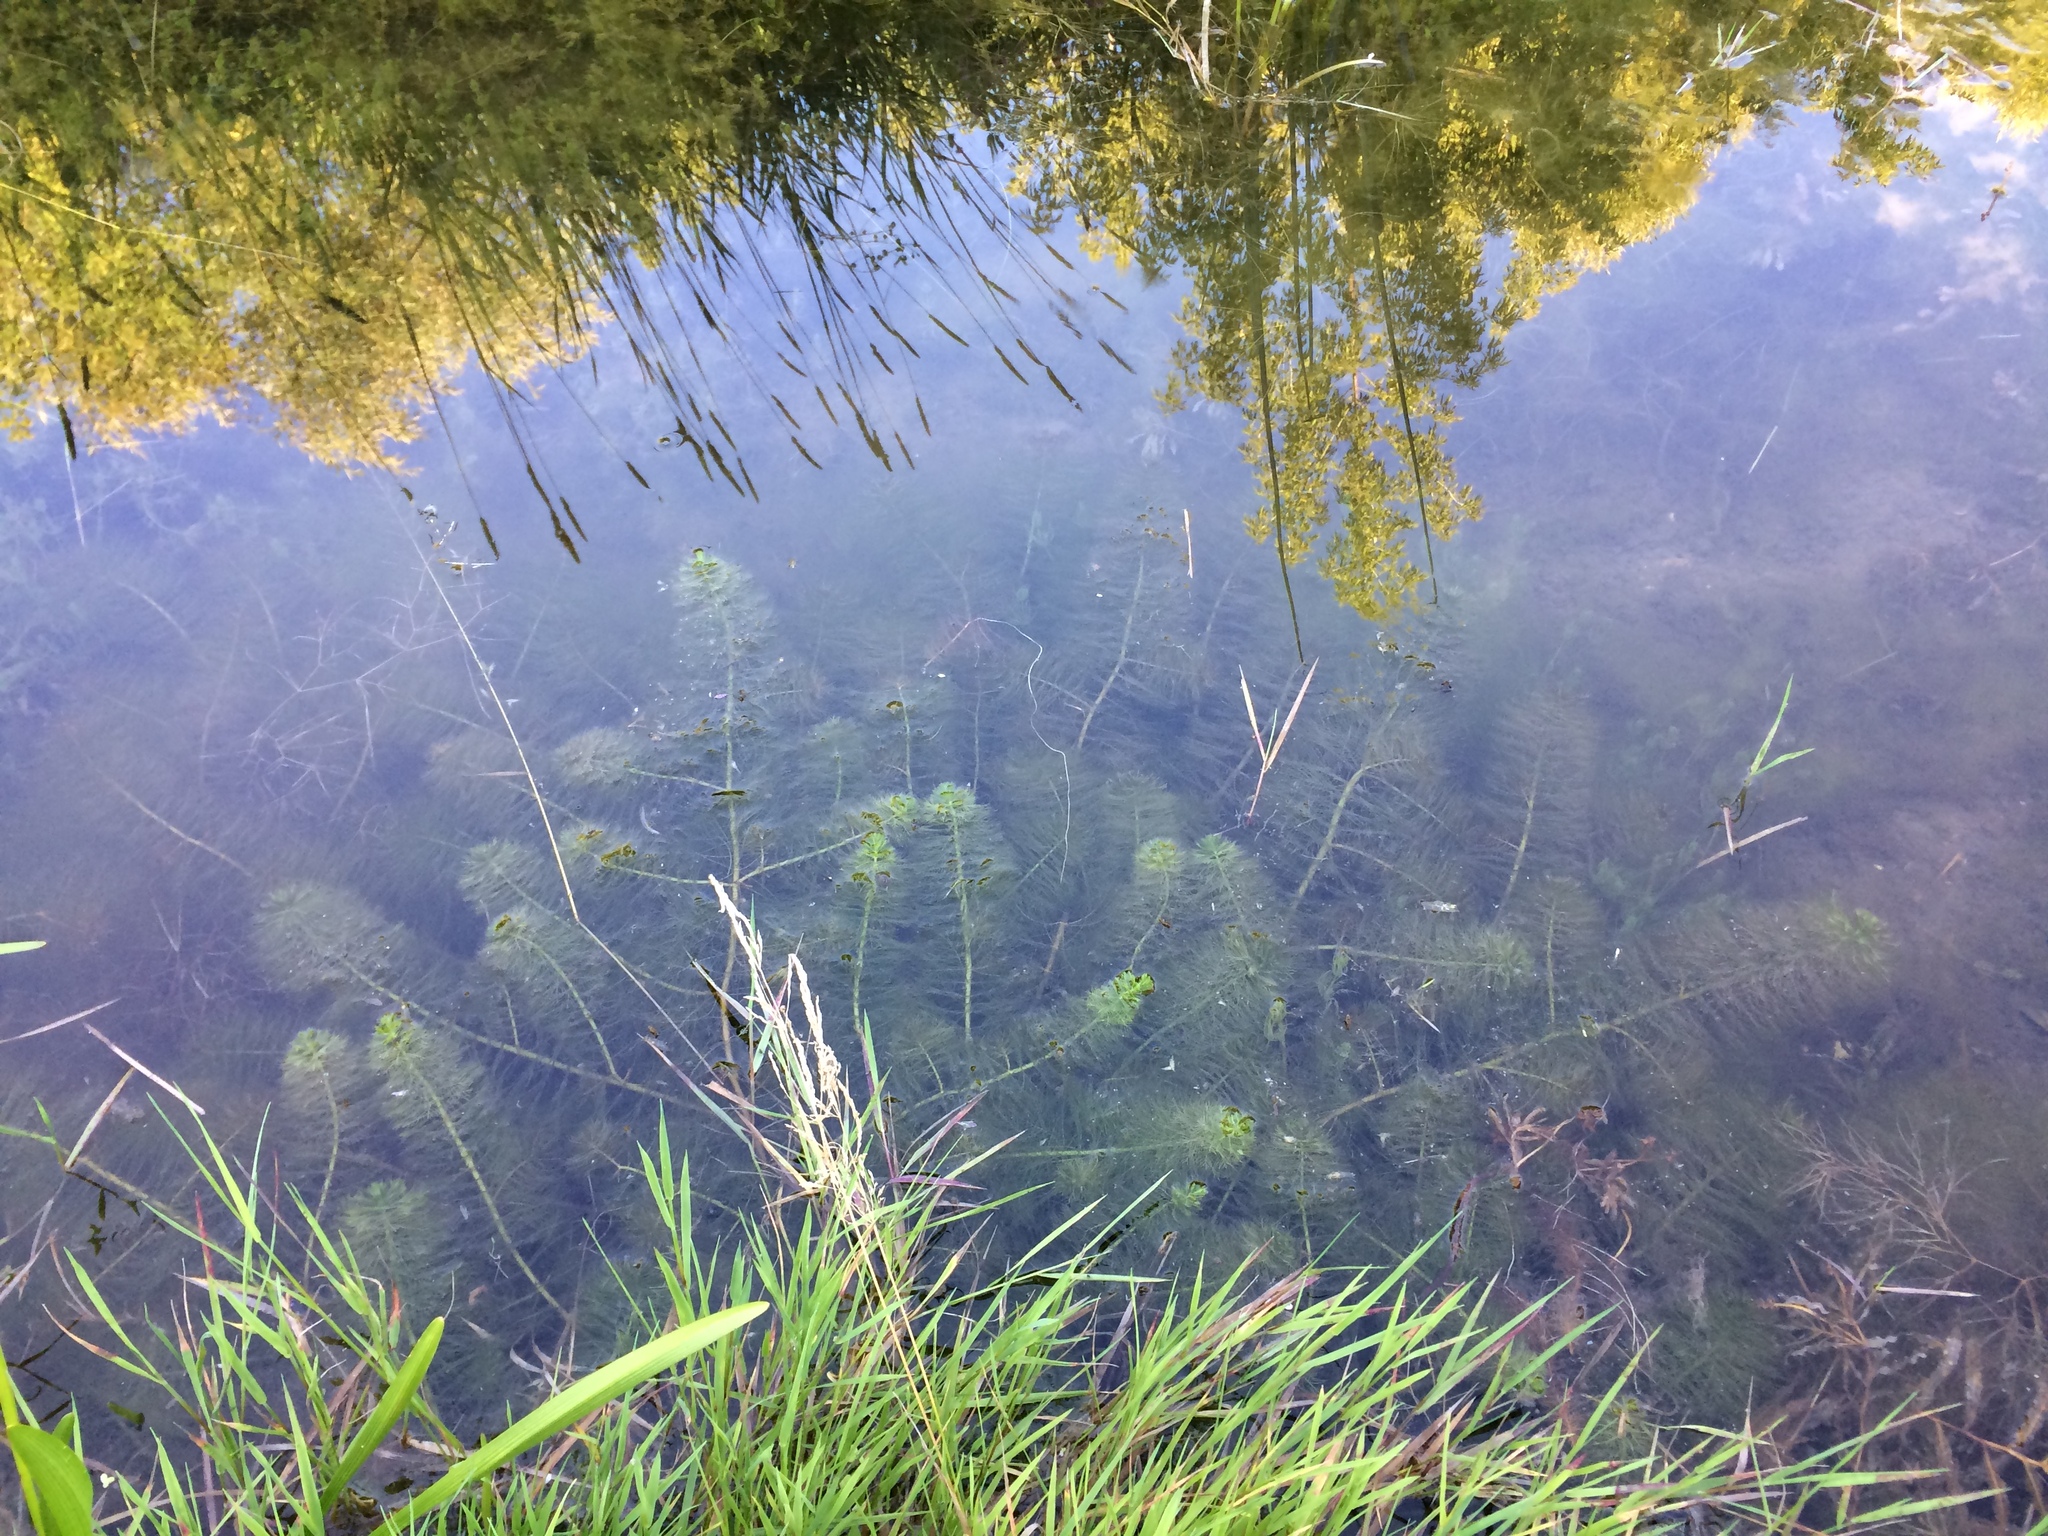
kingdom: Plantae
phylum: Tracheophyta
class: Magnoliopsida
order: Saxifragales
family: Haloragaceae
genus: Myriophyllum
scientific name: Myriophyllum verticillatum
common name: Whorled water-milfoil
